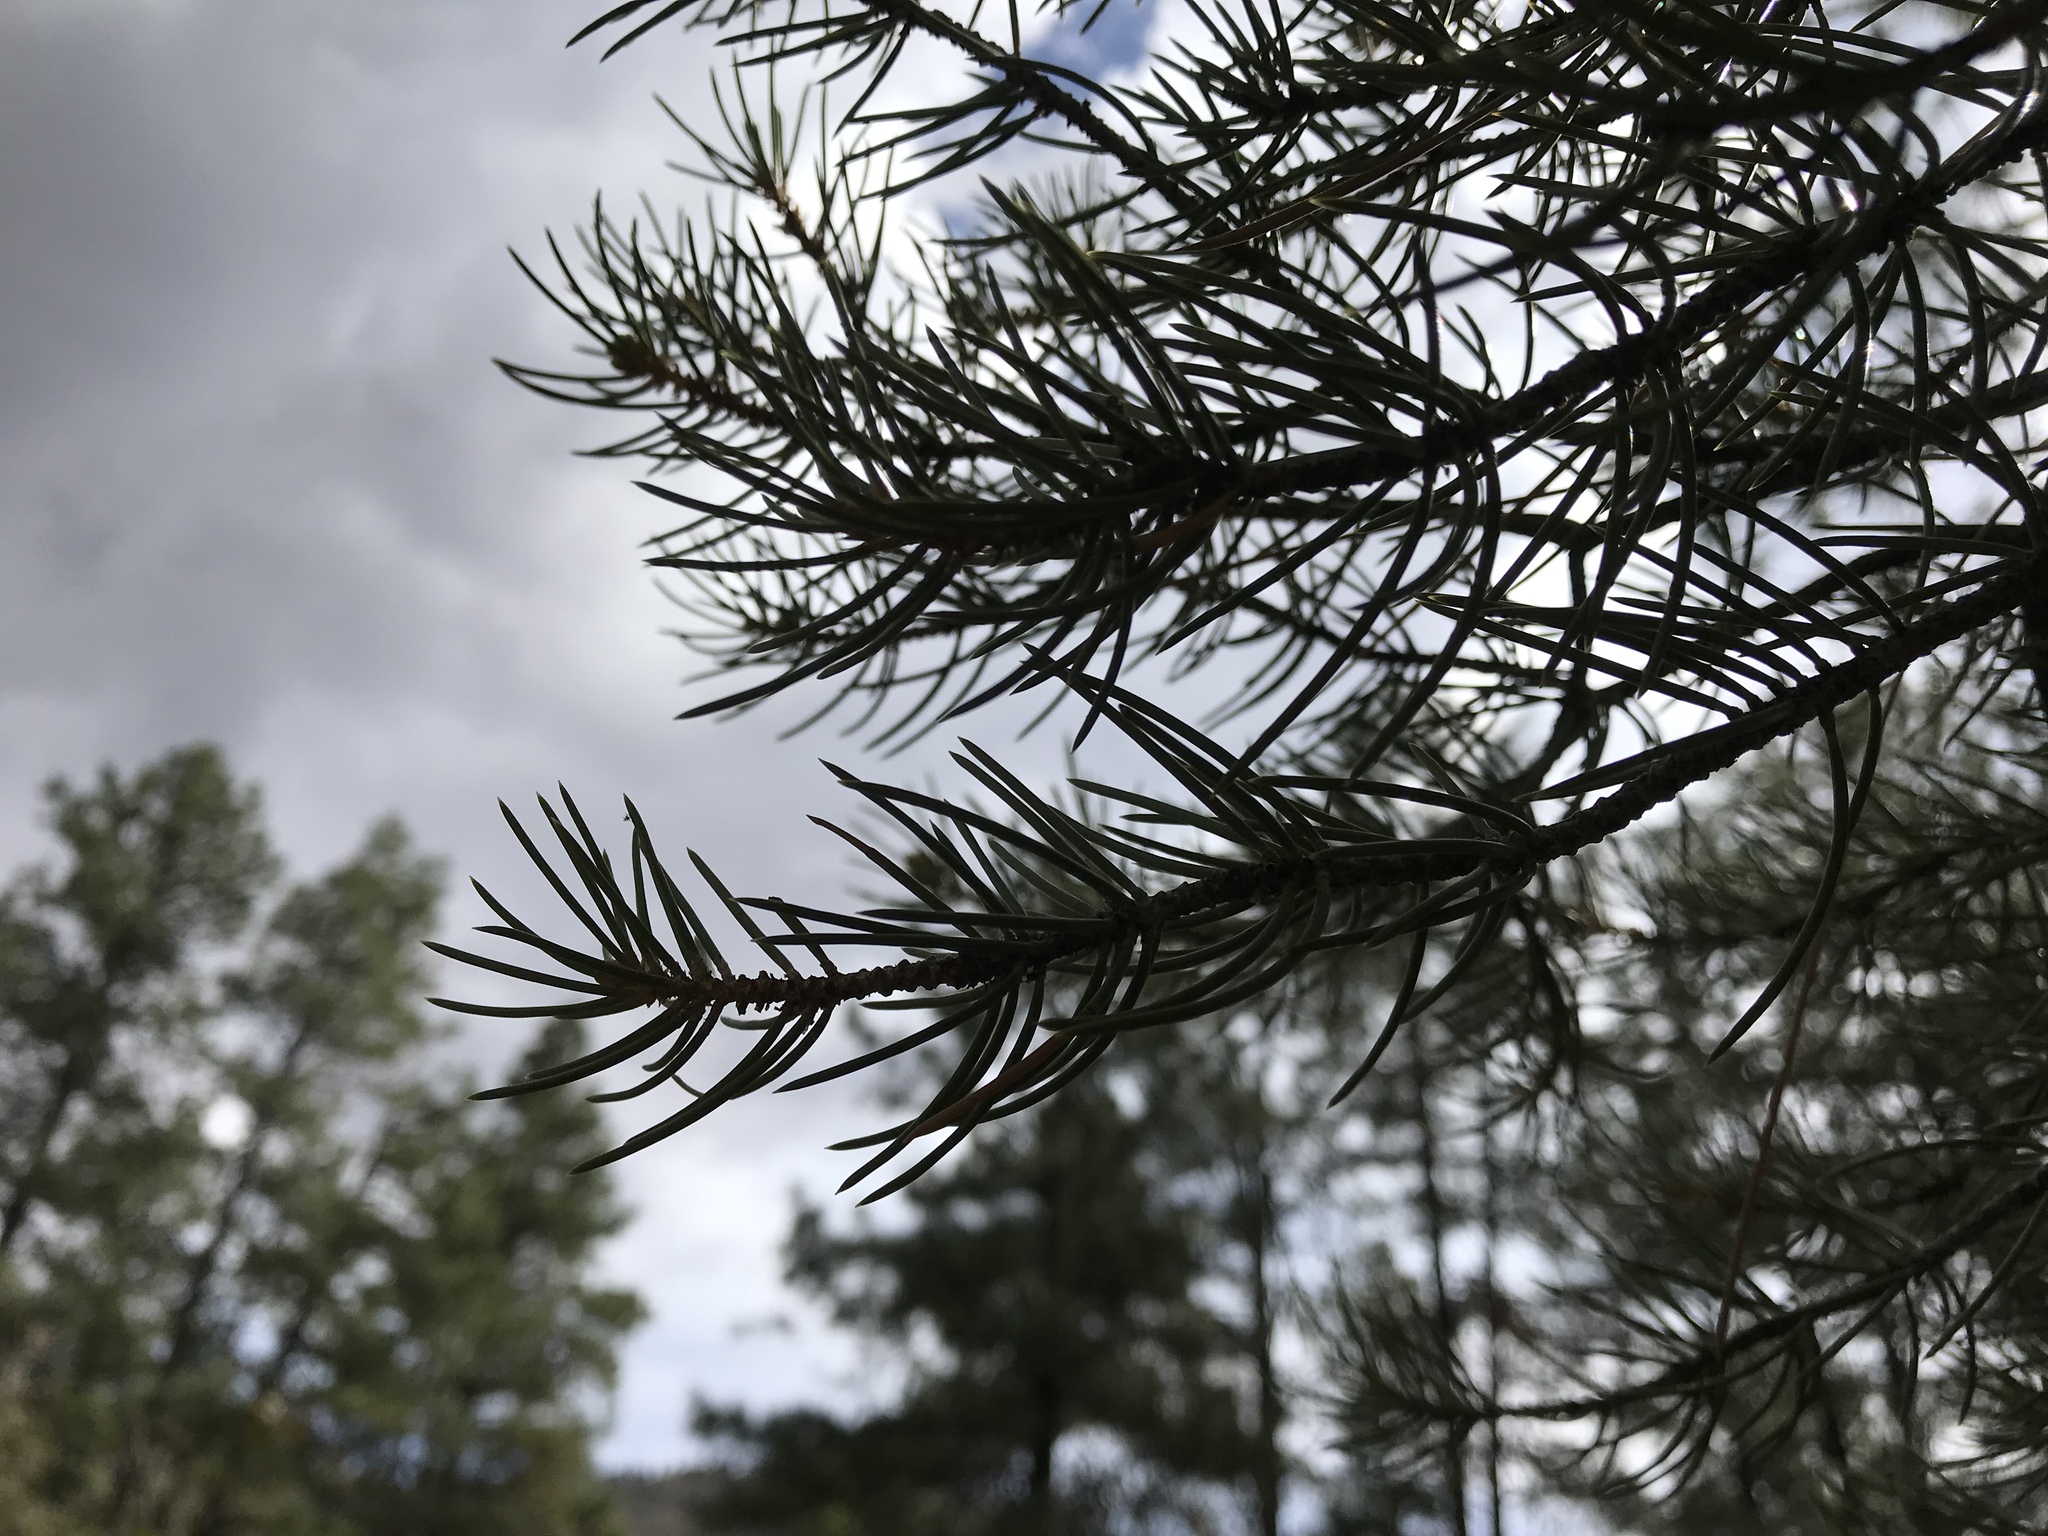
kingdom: Plantae
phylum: Tracheophyta
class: Pinopsida
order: Pinales
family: Pinaceae
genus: Pinus
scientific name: Pinus monophylla
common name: One-leaved nut pine
